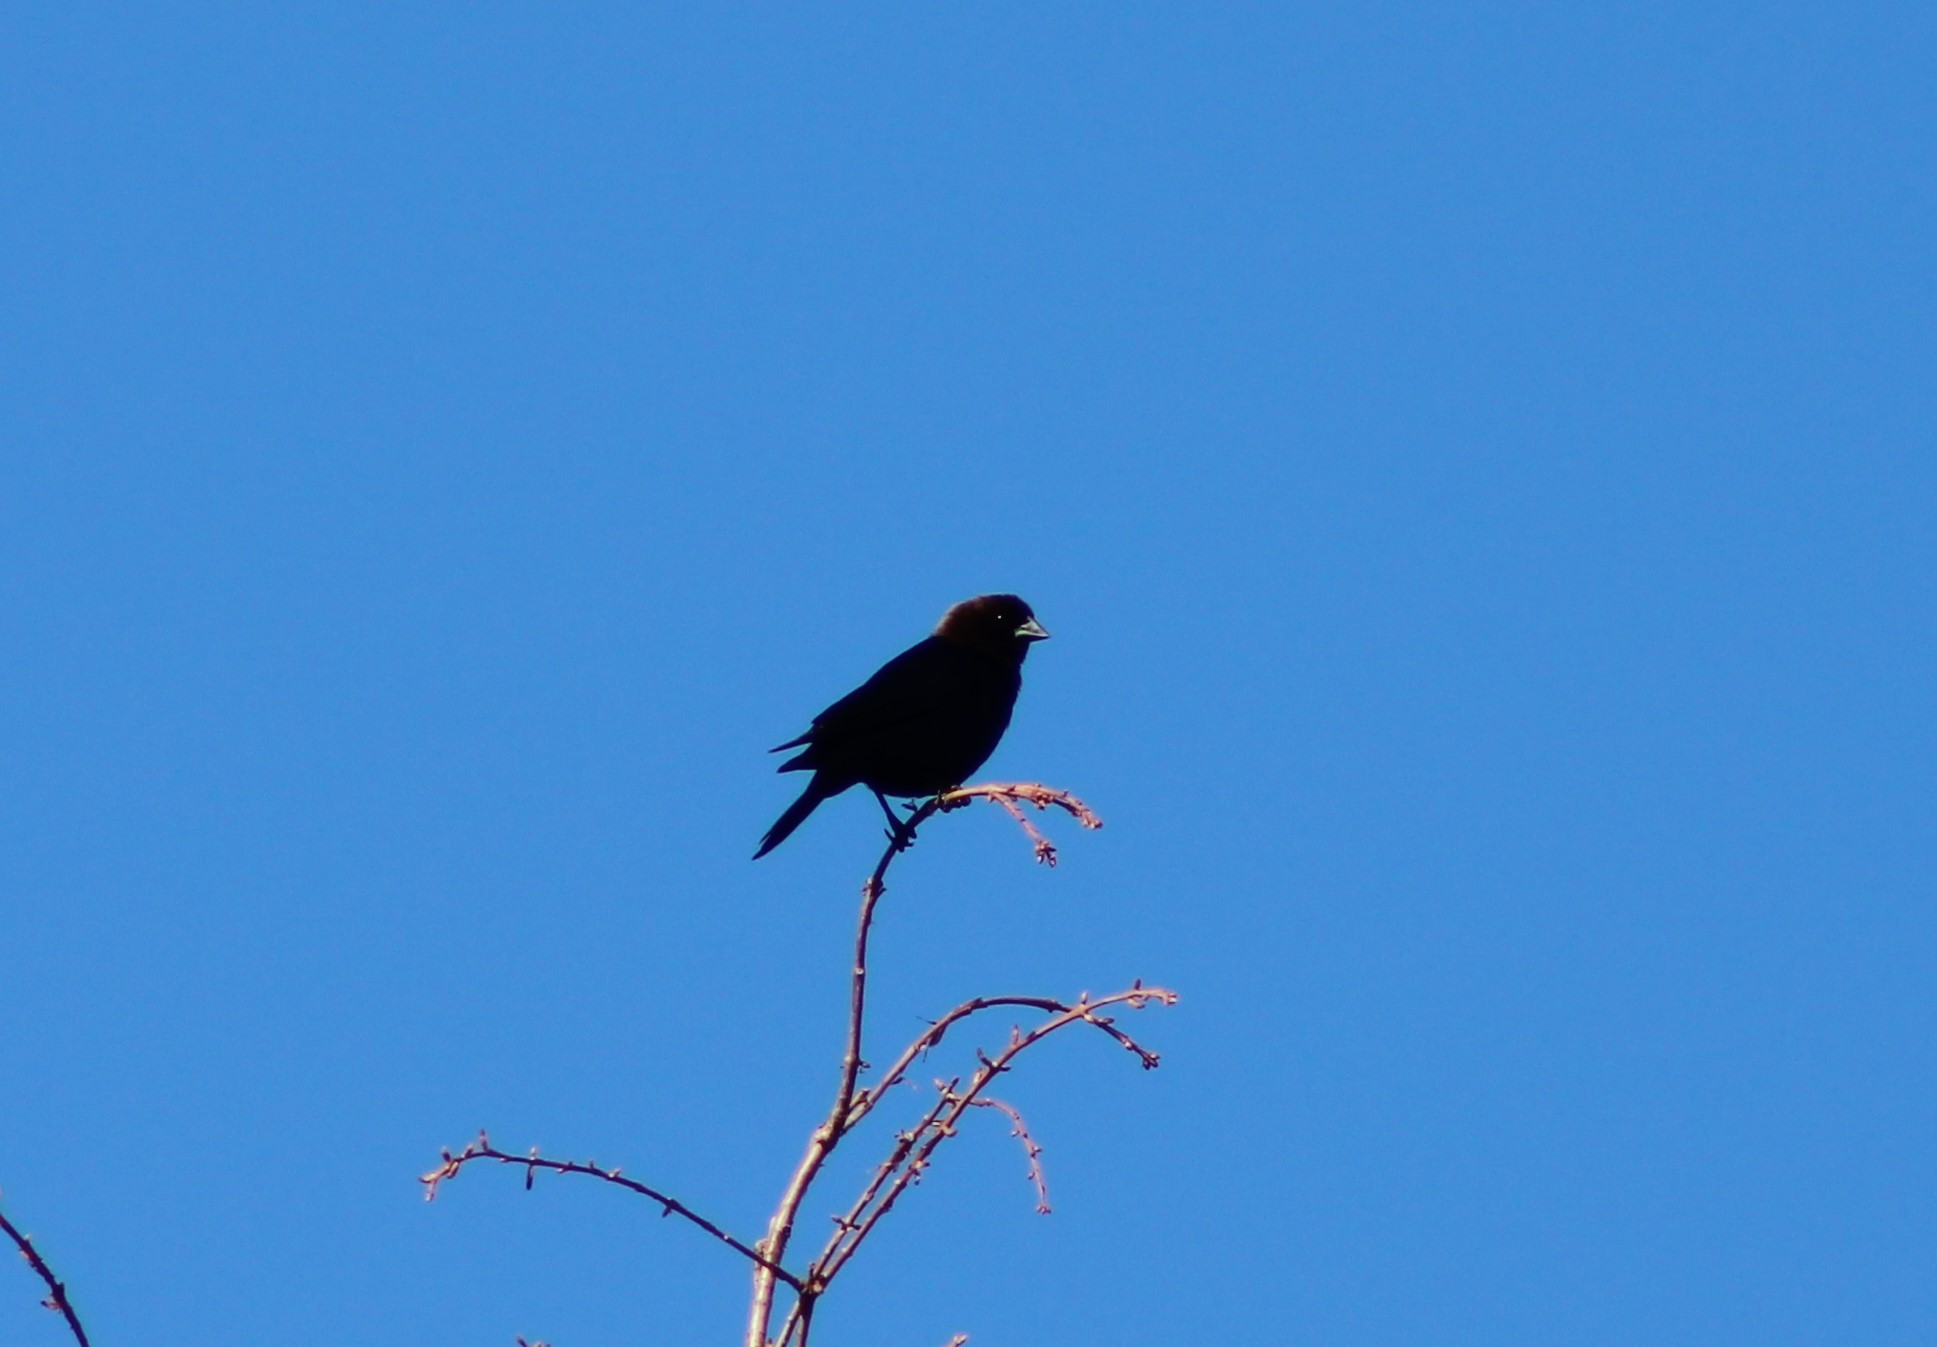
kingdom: Animalia
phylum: Chordata
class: Aves
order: Passeriformes
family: Icteridae
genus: Molothrus
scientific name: Molothrus ater
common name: Brown-headed cowbird
